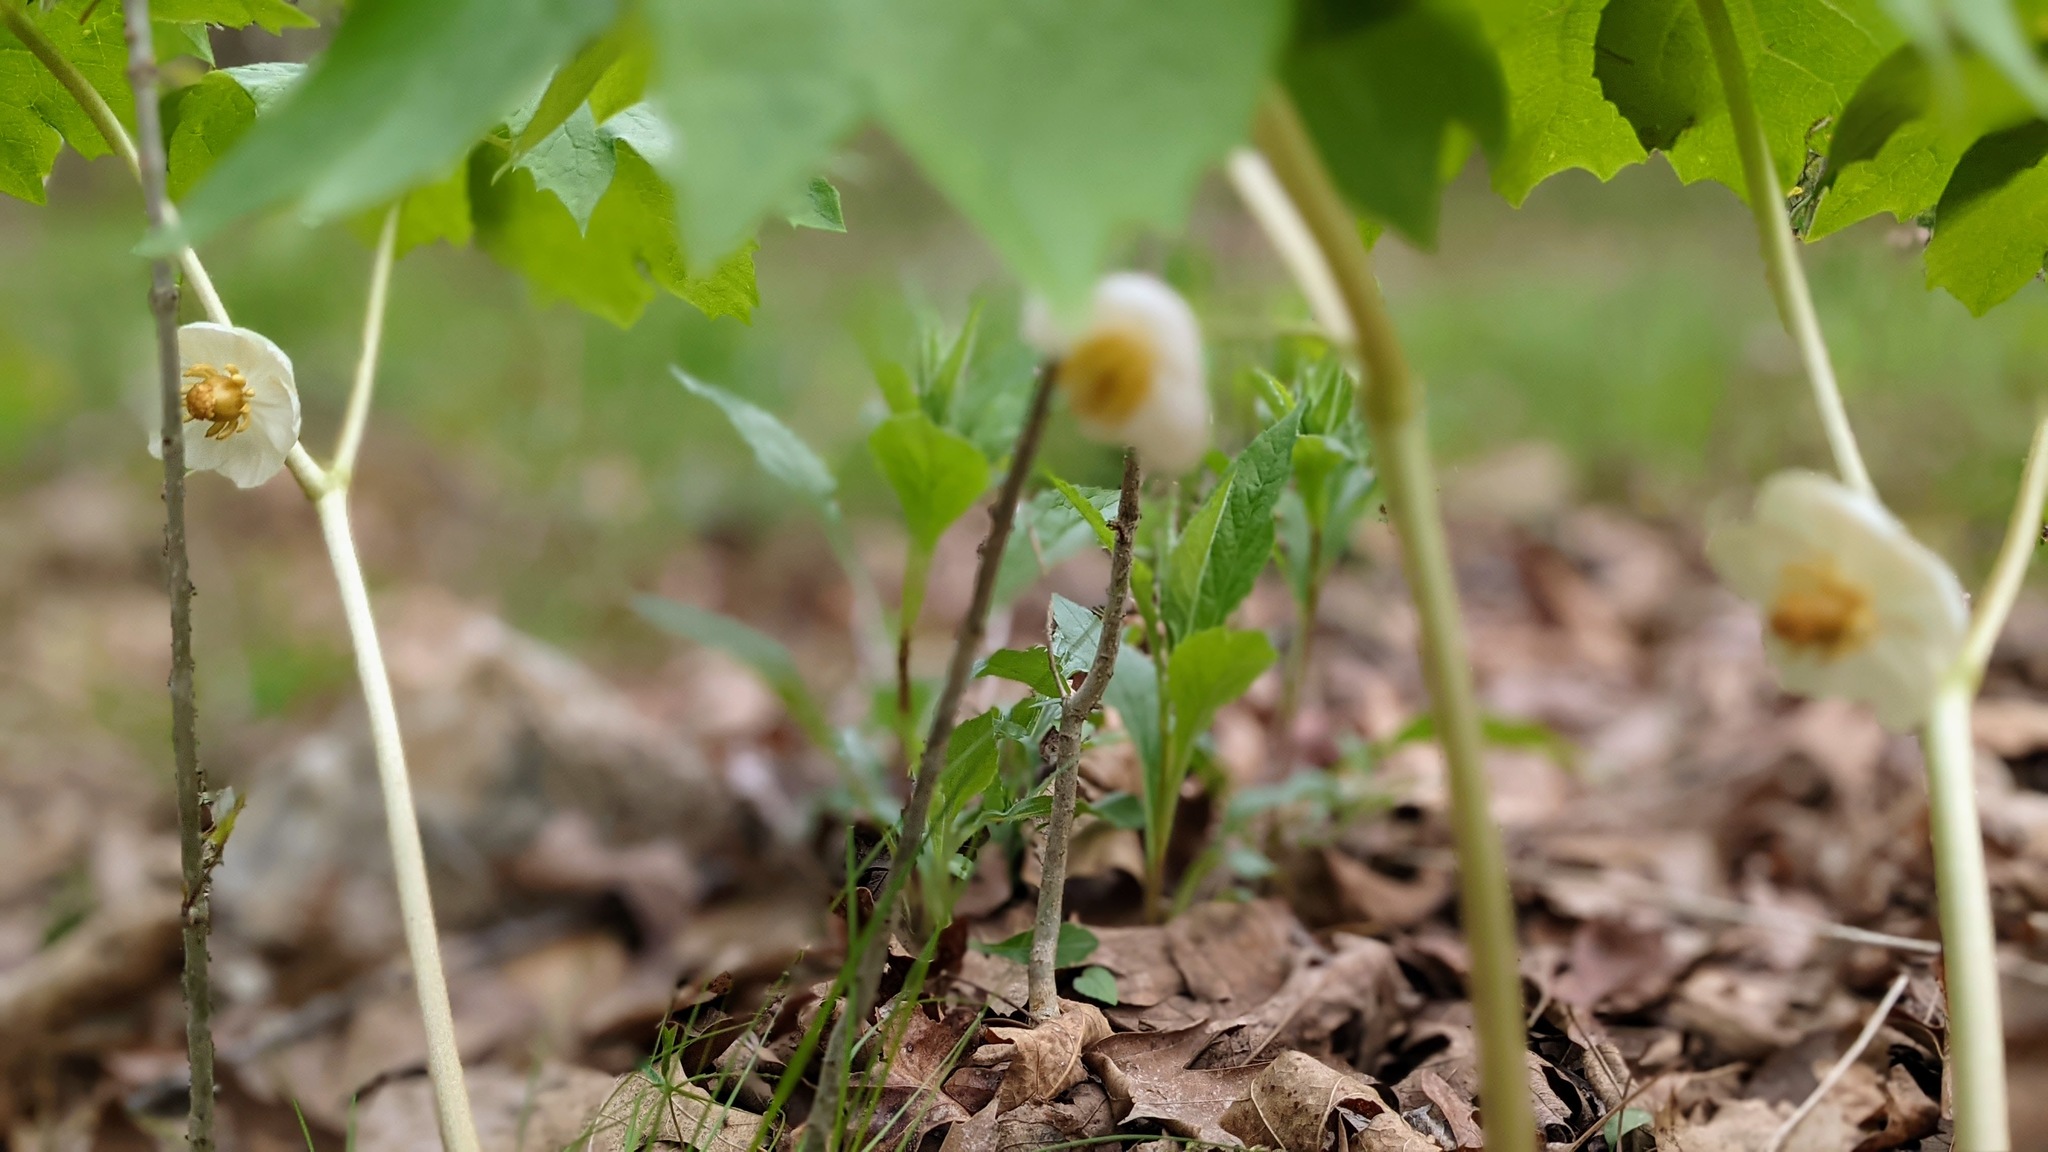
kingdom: Plantae
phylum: Tracheophyta
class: Magnoliopsida
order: Ranunculales
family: Berberidaceae
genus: Podophyllum
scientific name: Podophyllum peltatum
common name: Wild mandrake
